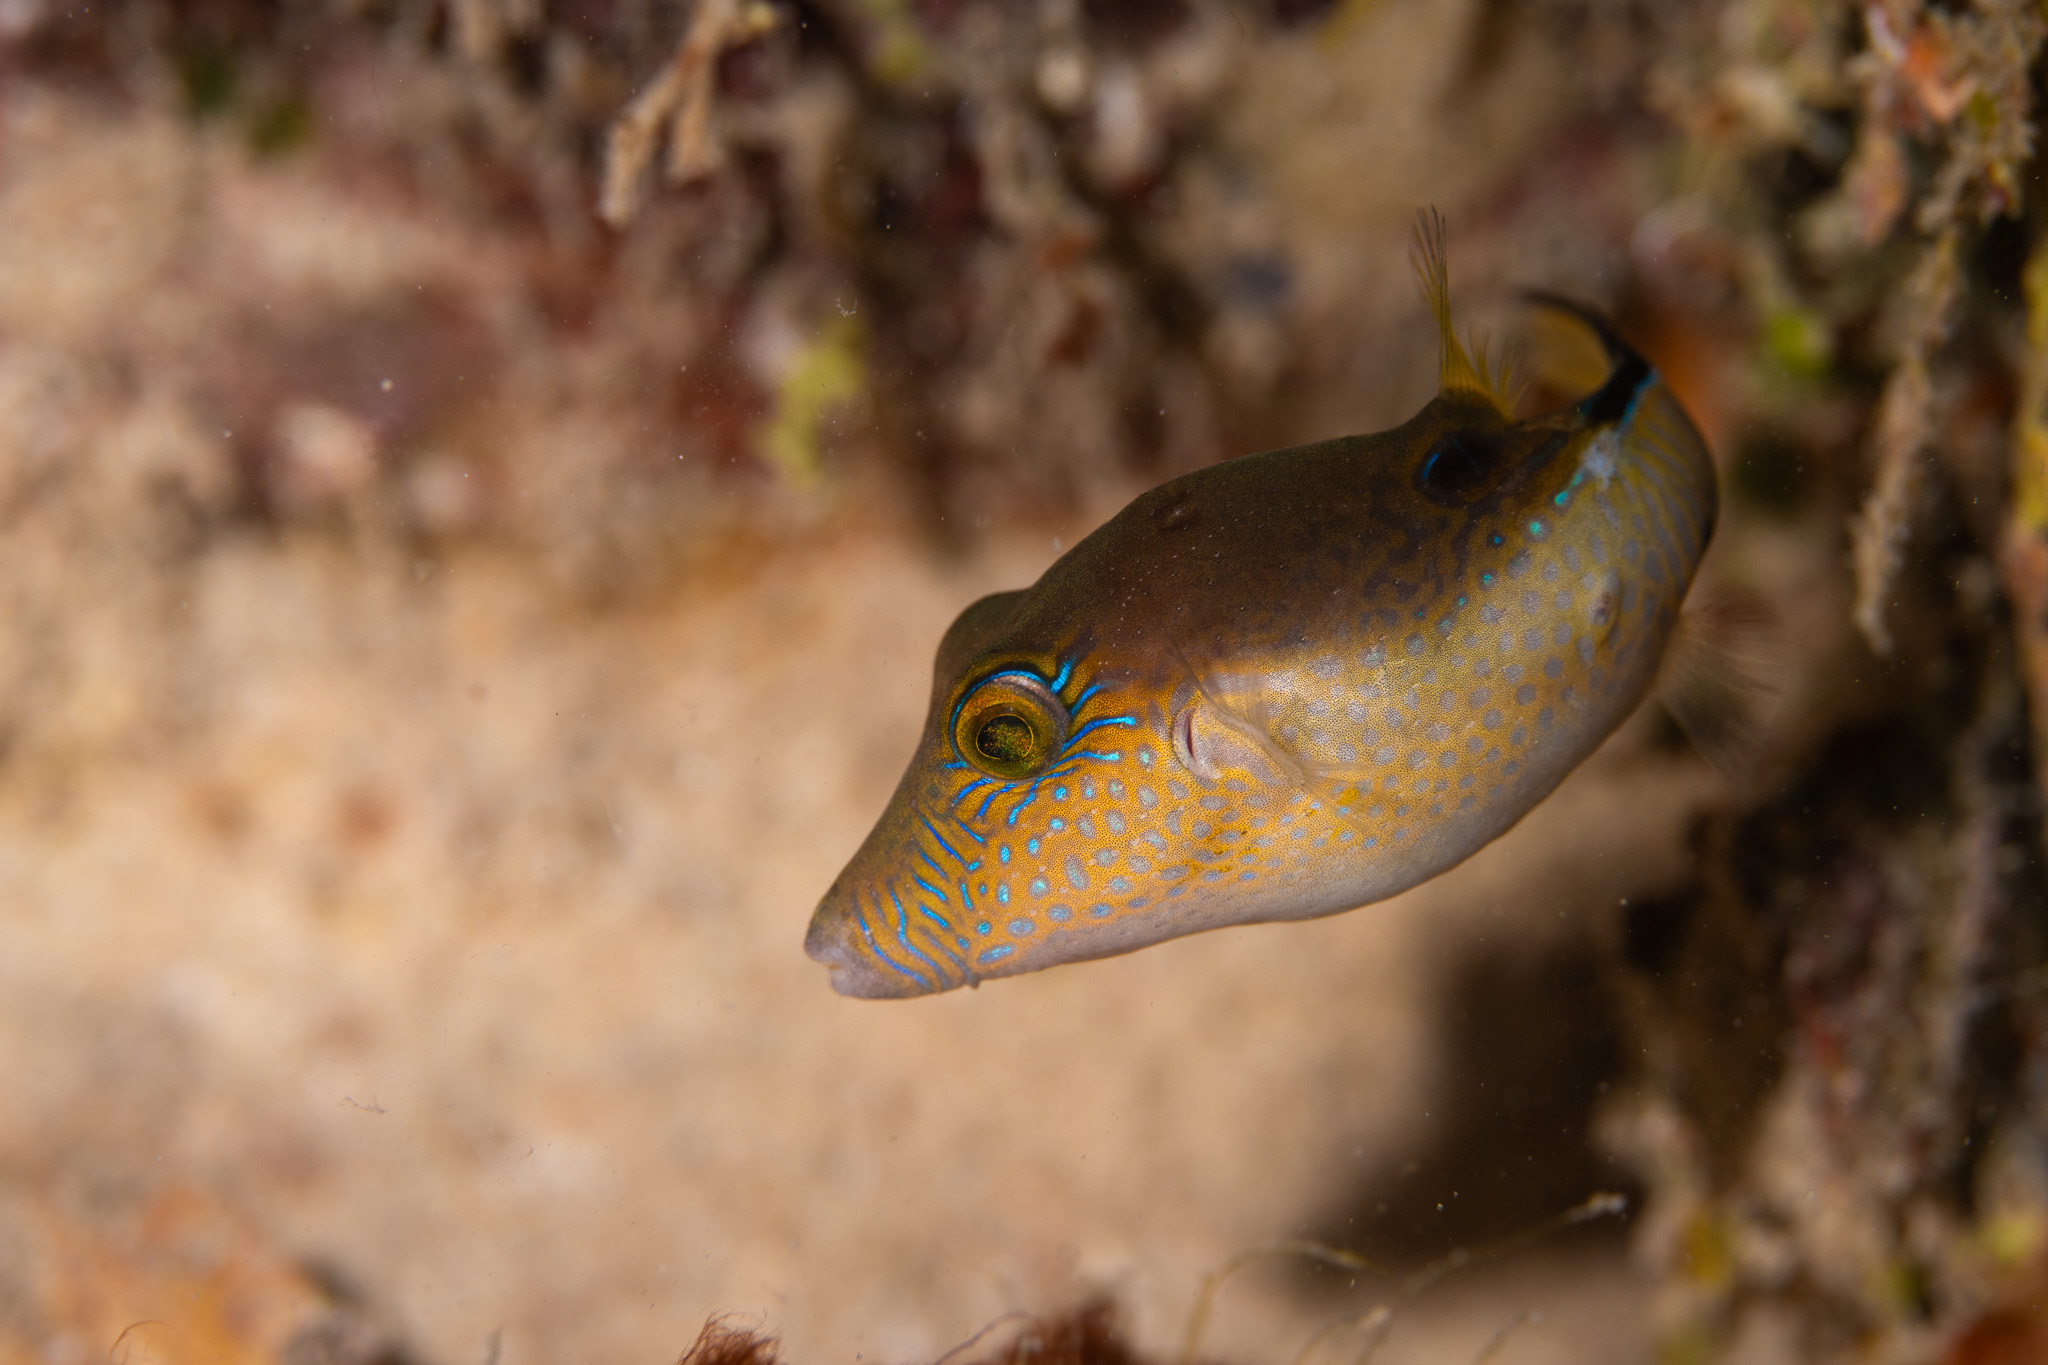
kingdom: Animalia
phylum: Chordata
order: Tetraodontiformes
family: Tetraodontidae
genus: Canthigaster
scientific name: Canthigaster rostrata
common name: Caribbean sharpnose-puffer
